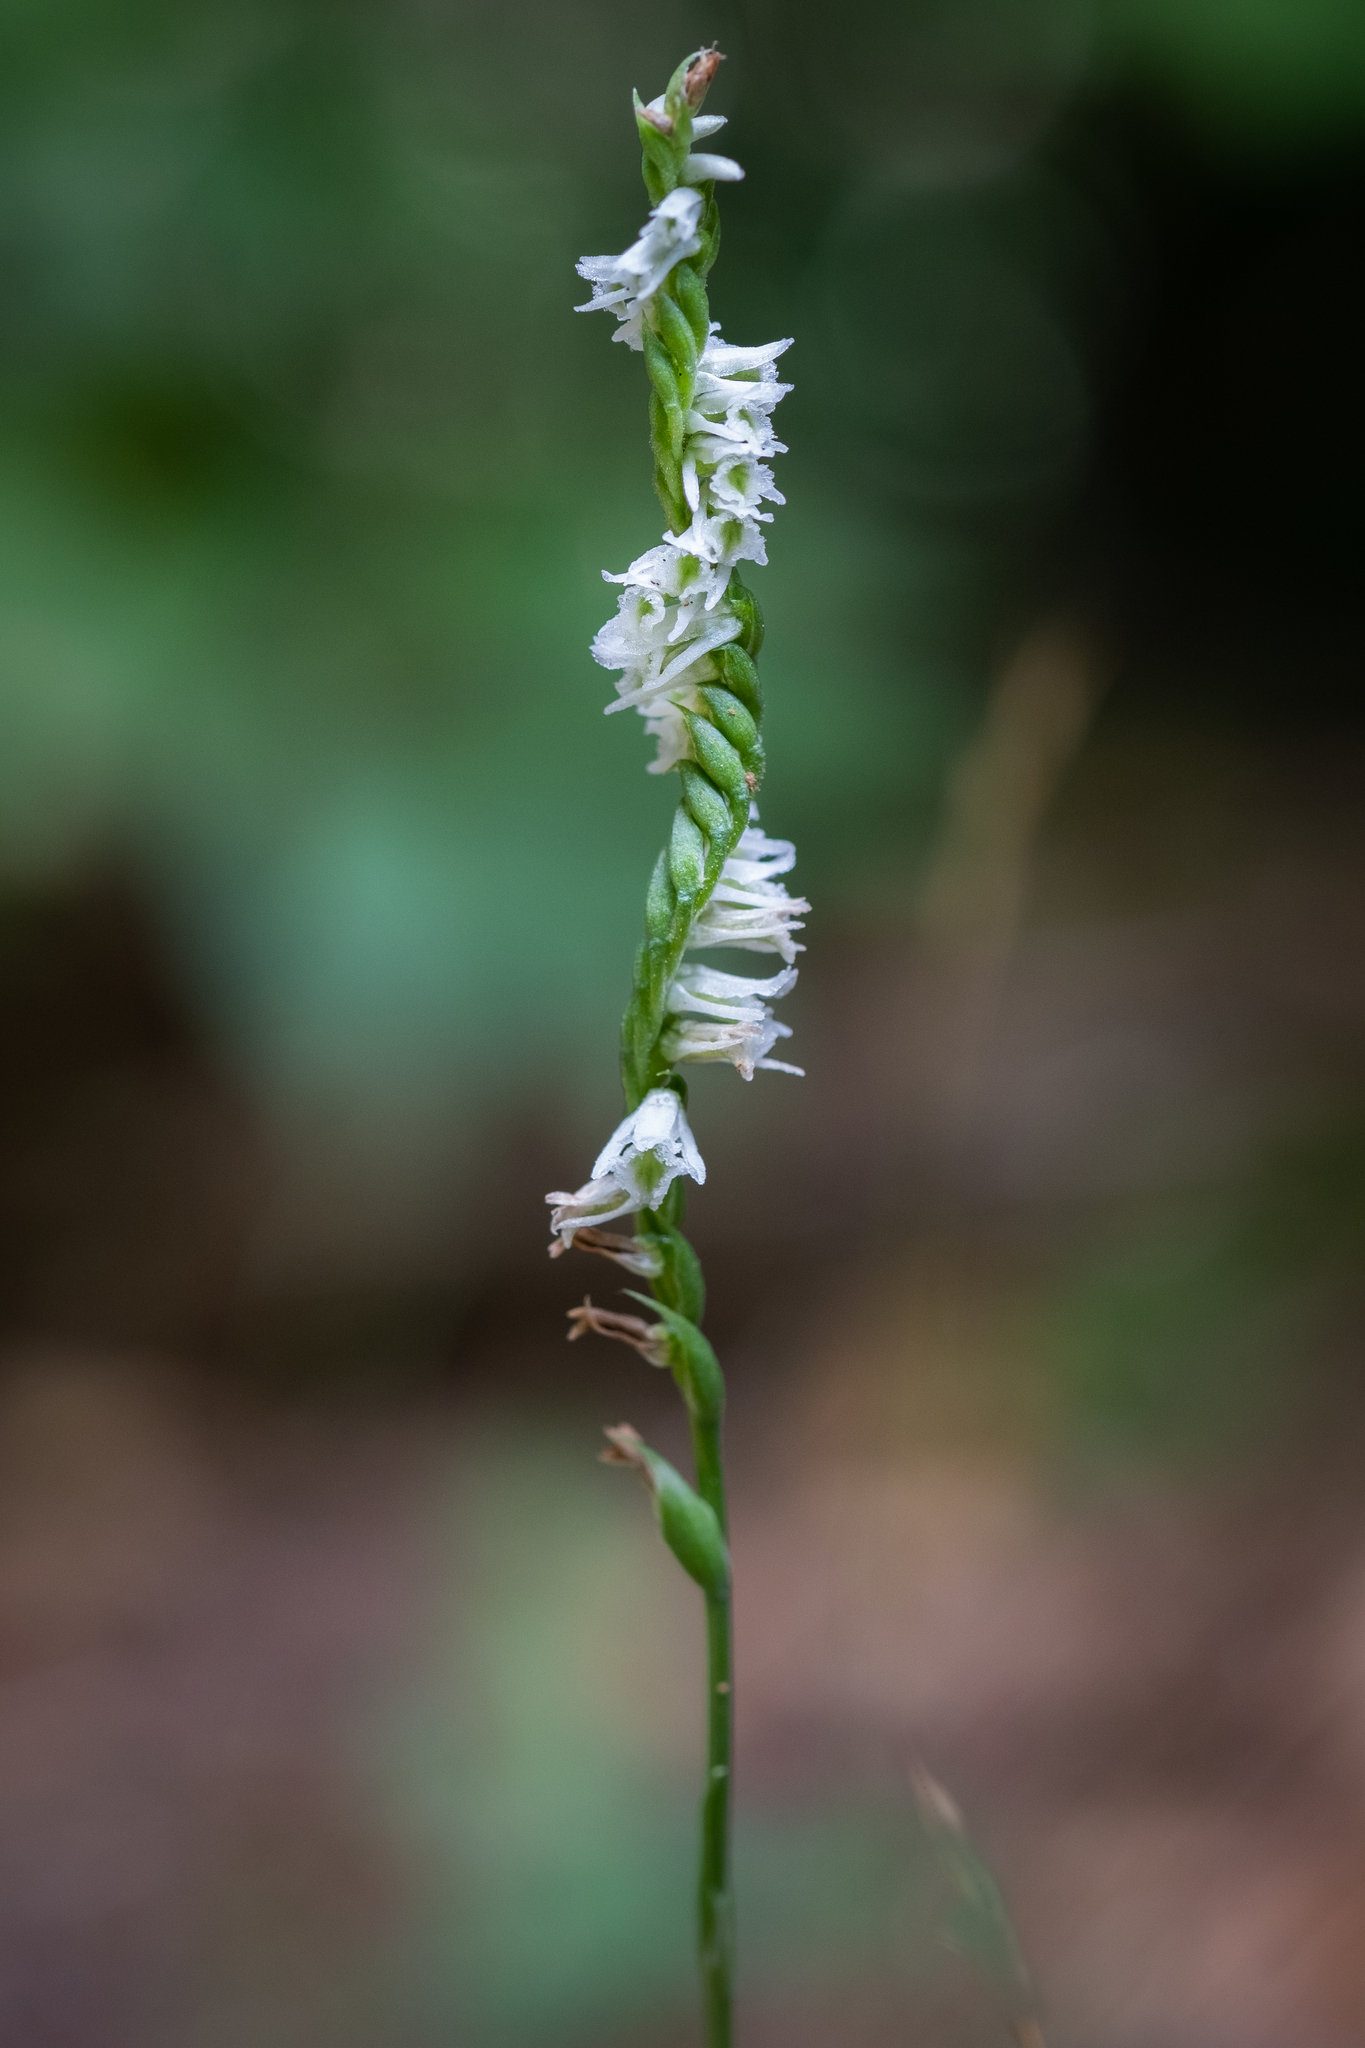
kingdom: Plantae
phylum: Tracheophyta
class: Liliopsida
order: Asparagales
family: Orchidaceae
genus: Spiranthes
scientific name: Spiranthes lacera
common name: Northern slender ladies'-tresses
